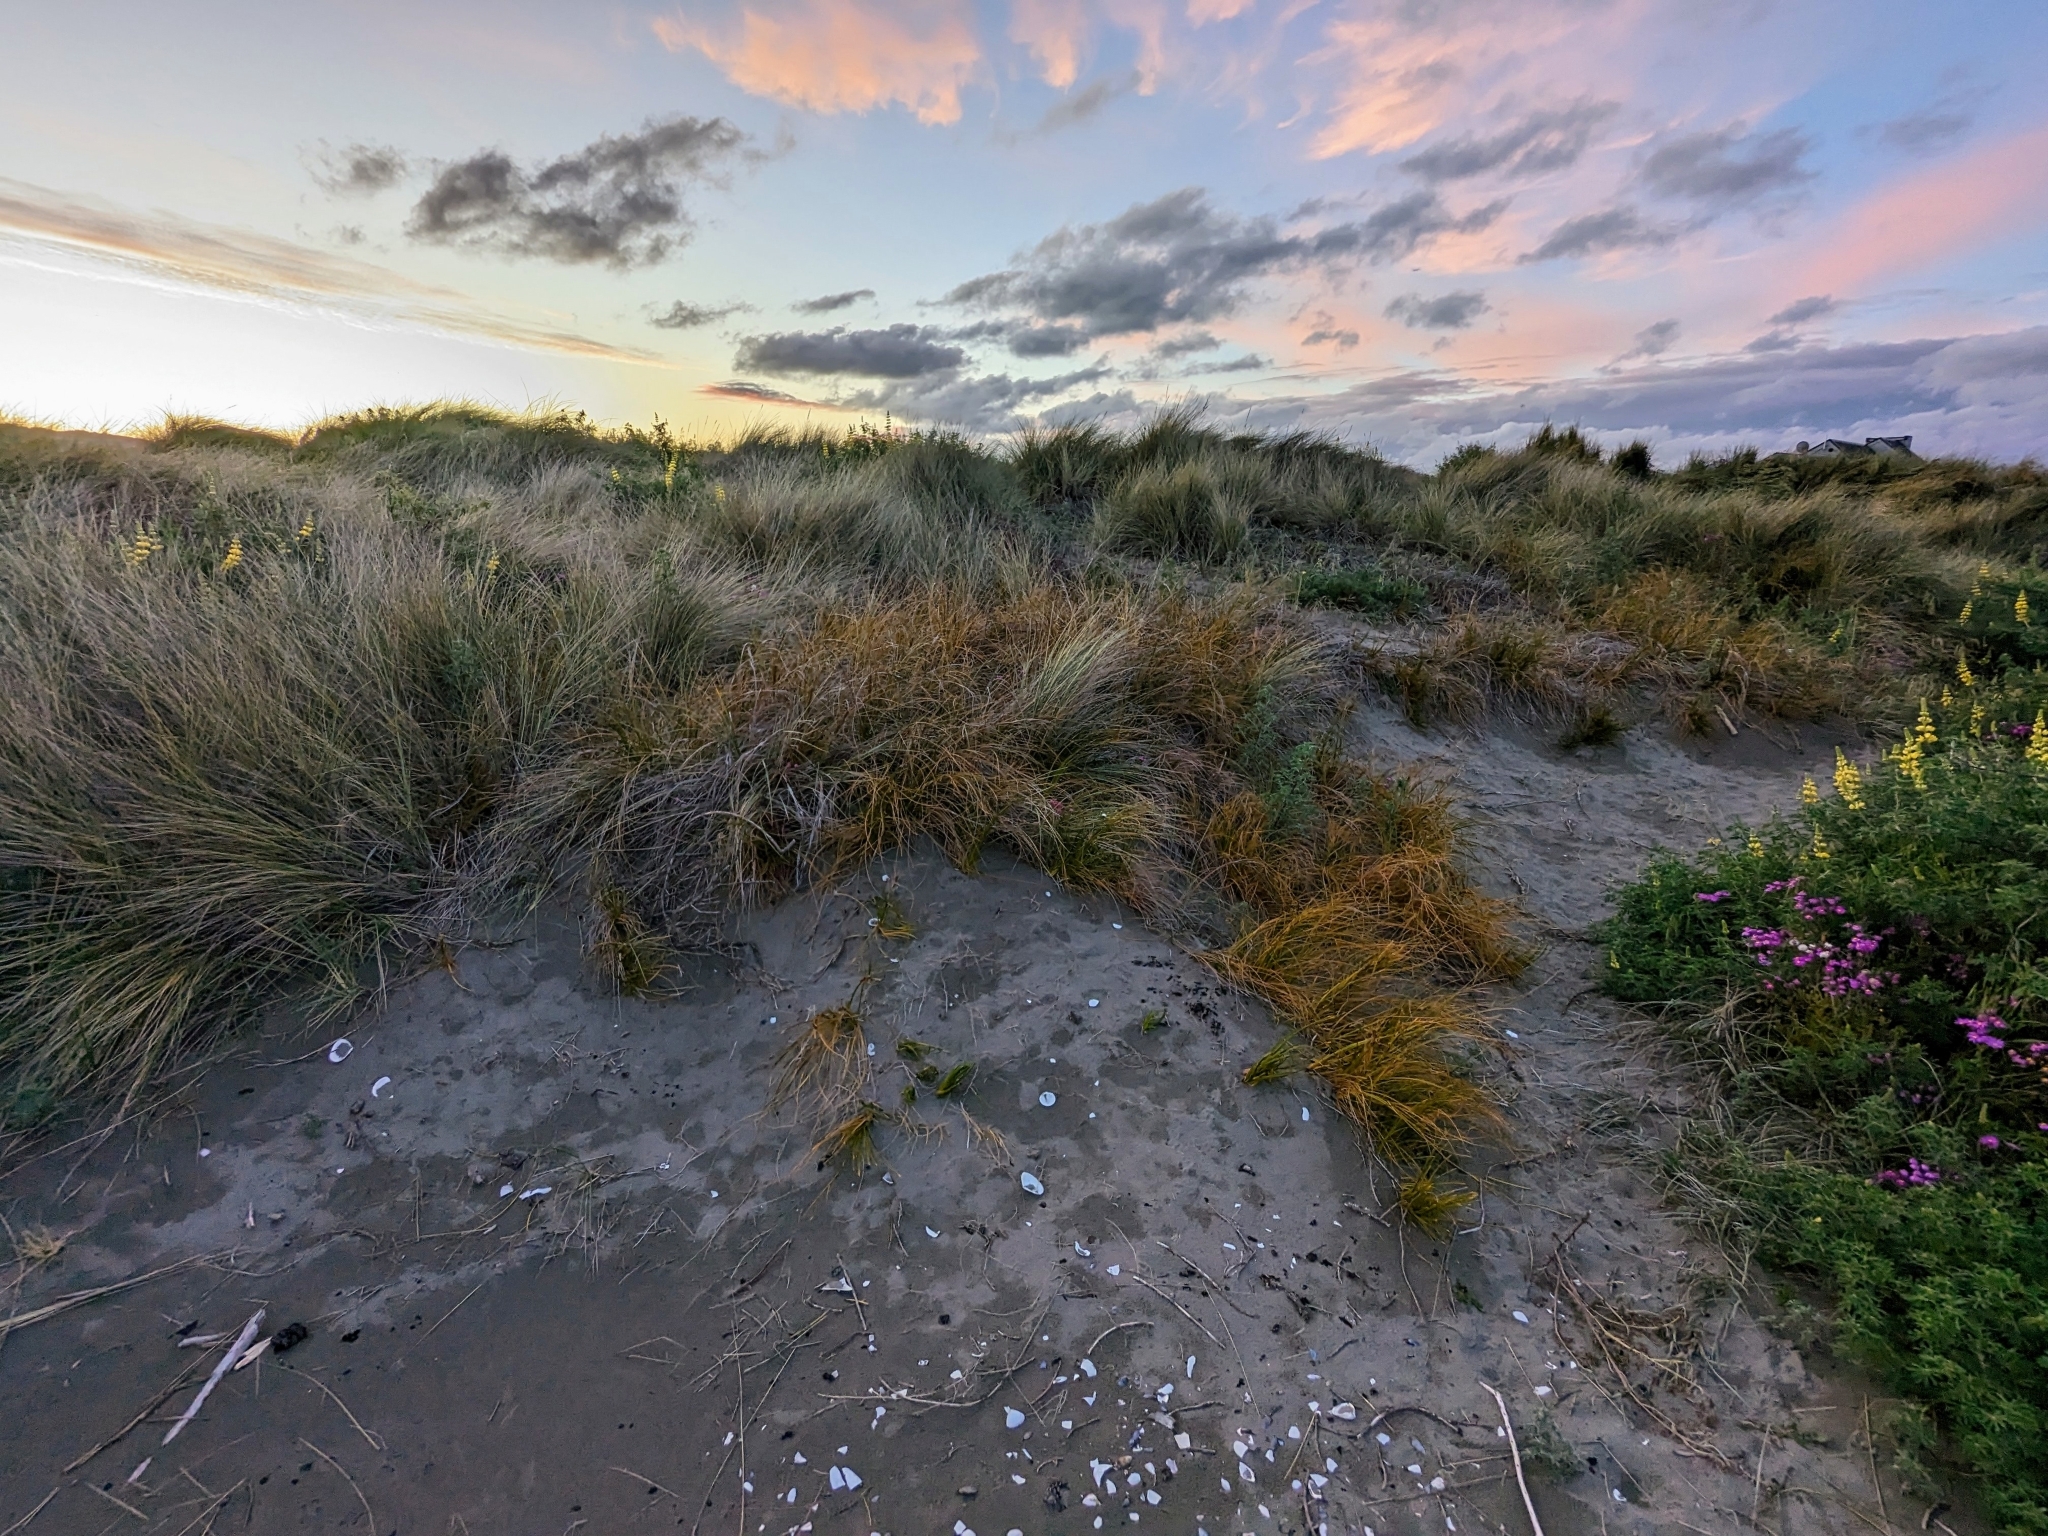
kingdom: Animalia
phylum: Arthropoda
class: Arachnida
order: Araneae
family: Theridiidae
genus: Latrodectus
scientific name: Latrodectus katipo
